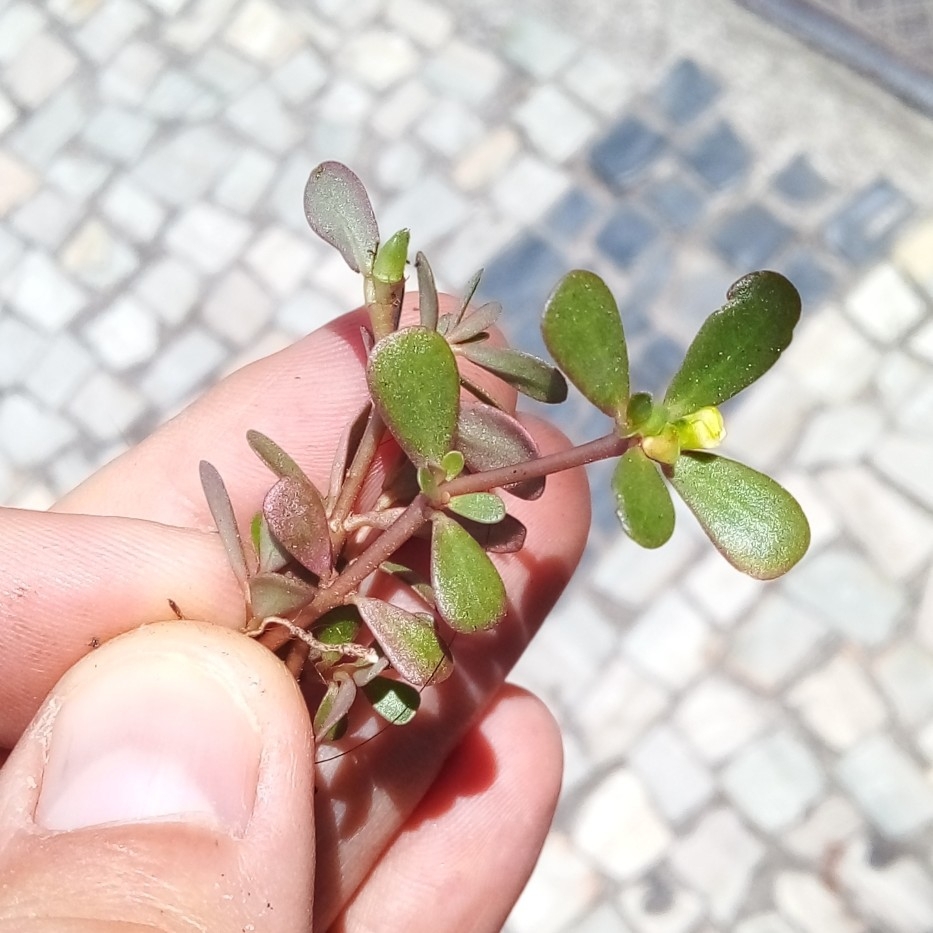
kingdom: Plantae
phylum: Tracheophyta
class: Magnoliopsida
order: Caryophyllales
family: Portulacaceae
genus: Portulaca
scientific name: Portulaca oleracea
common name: Common purslane
